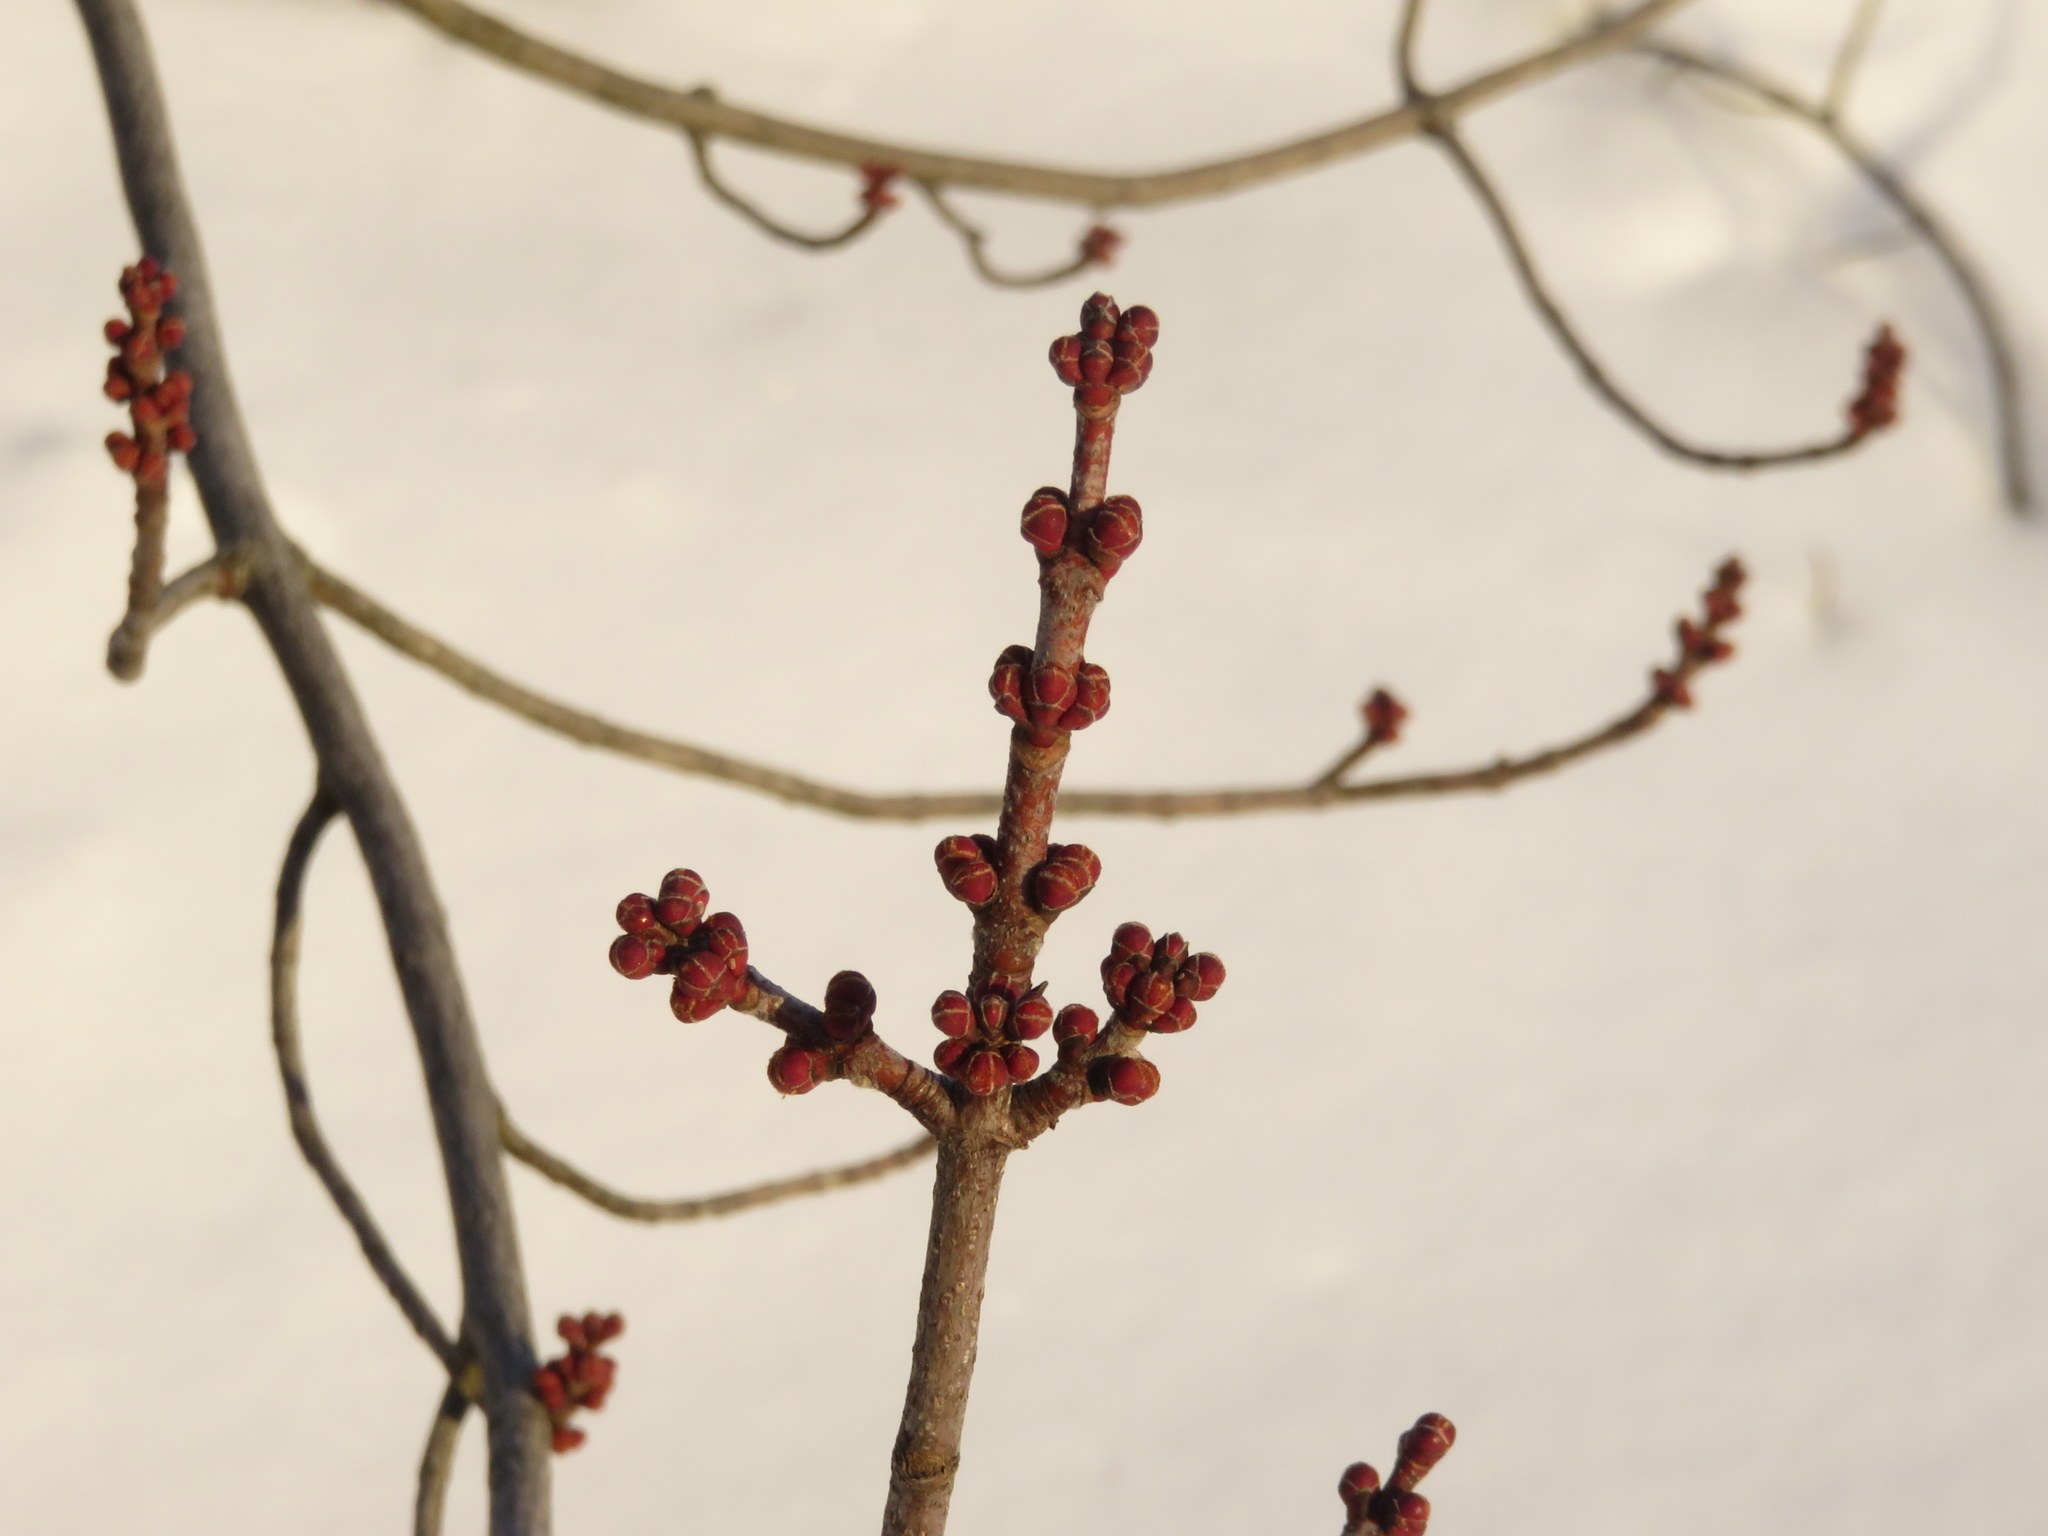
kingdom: Plantae
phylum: Tracheophyta
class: Magnoliopsida
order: Sapindales
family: Sapindaceae
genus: Acer
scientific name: Acer rubrum
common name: Red maple
